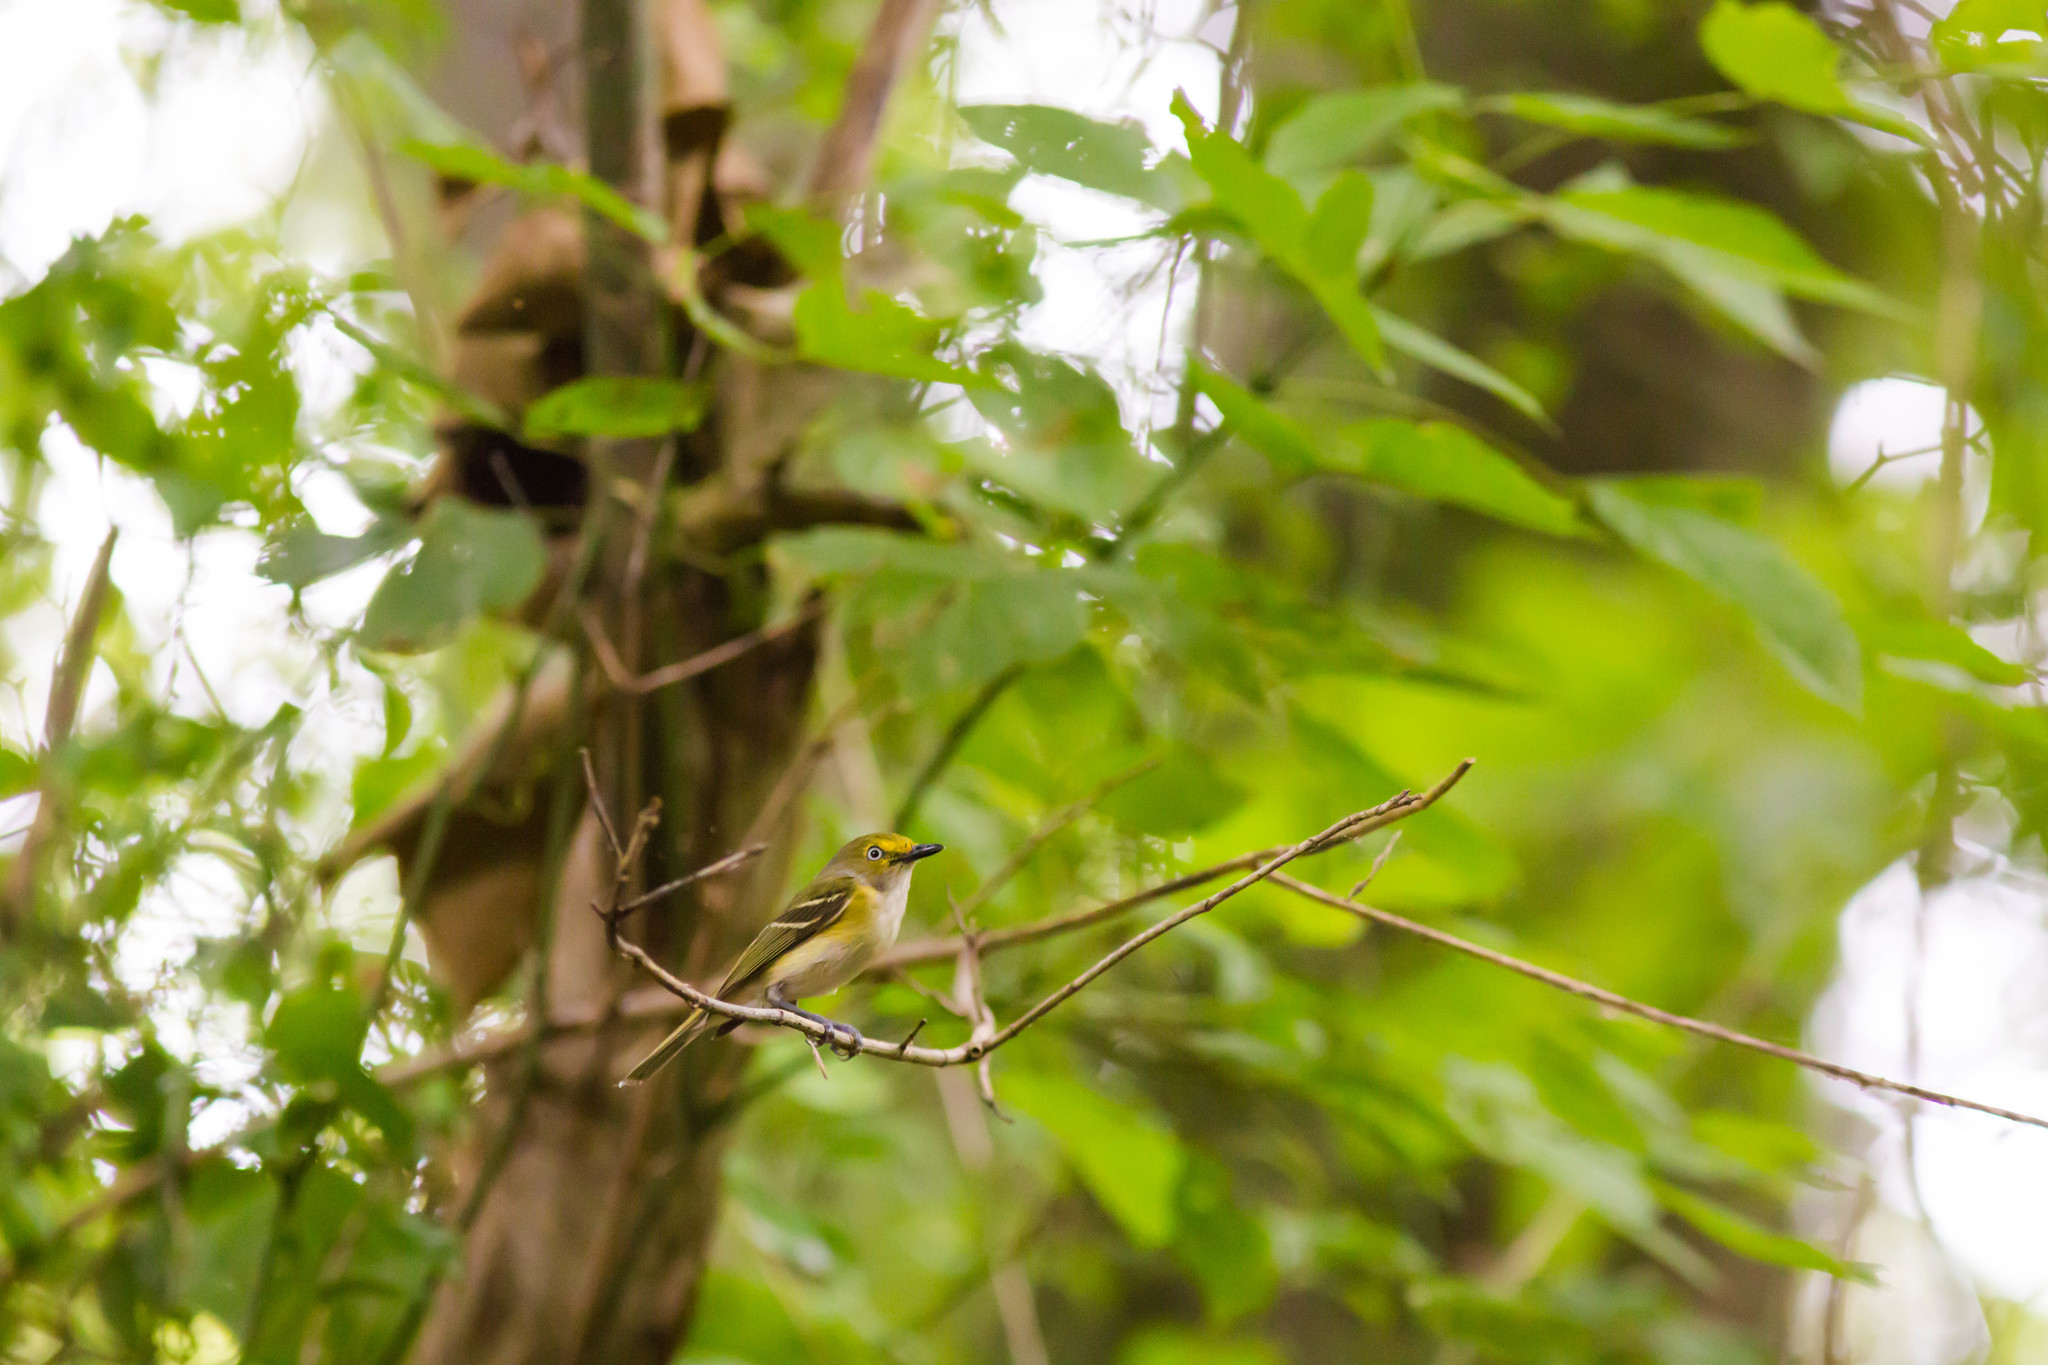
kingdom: Animalia
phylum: Chordata
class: Aves
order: Passeriformes
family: Vireonidae
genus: Vireo
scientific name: Vireo griseus
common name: White-eyed vireo
